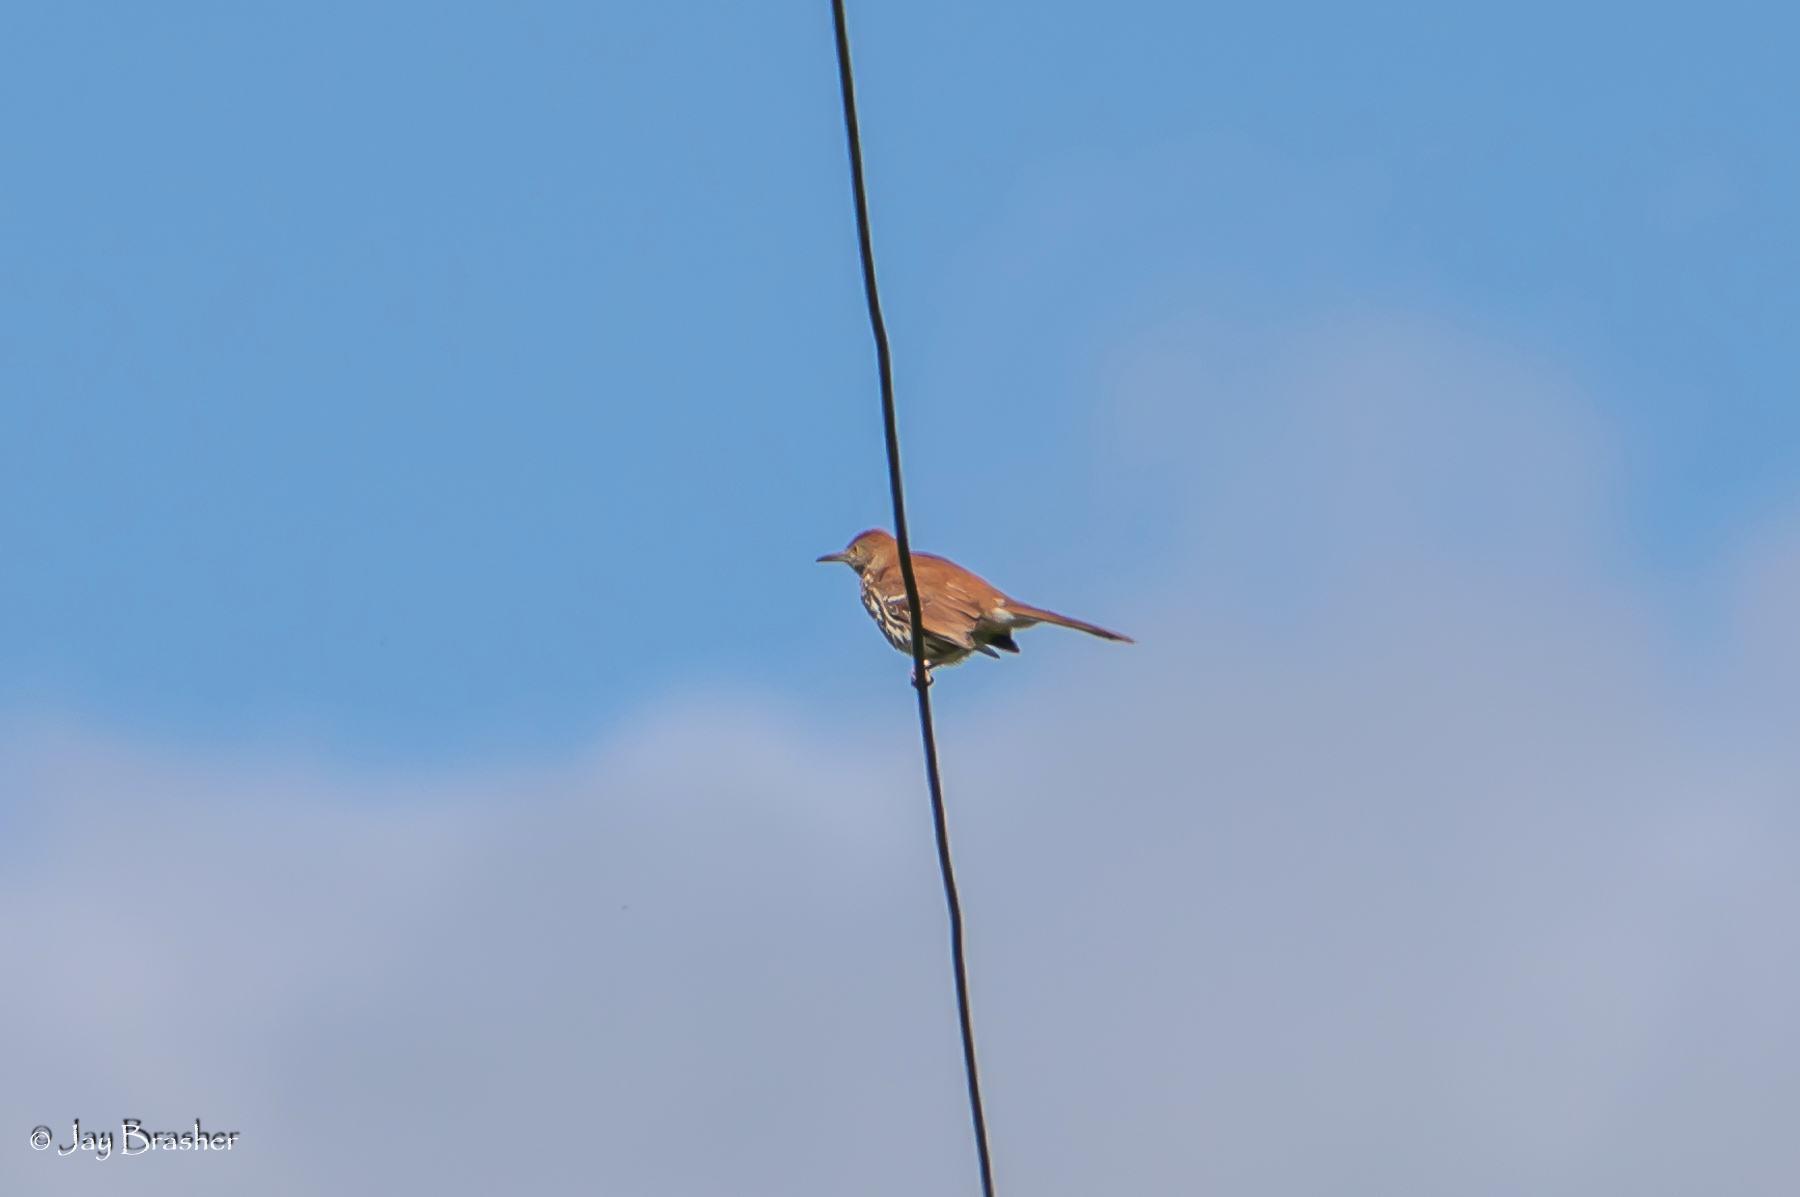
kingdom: Animalia
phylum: Chordata
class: Aves
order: Passeriformes
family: Mimidae
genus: Toxostoma
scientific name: Toxostoma rufum
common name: Brown thrasher
